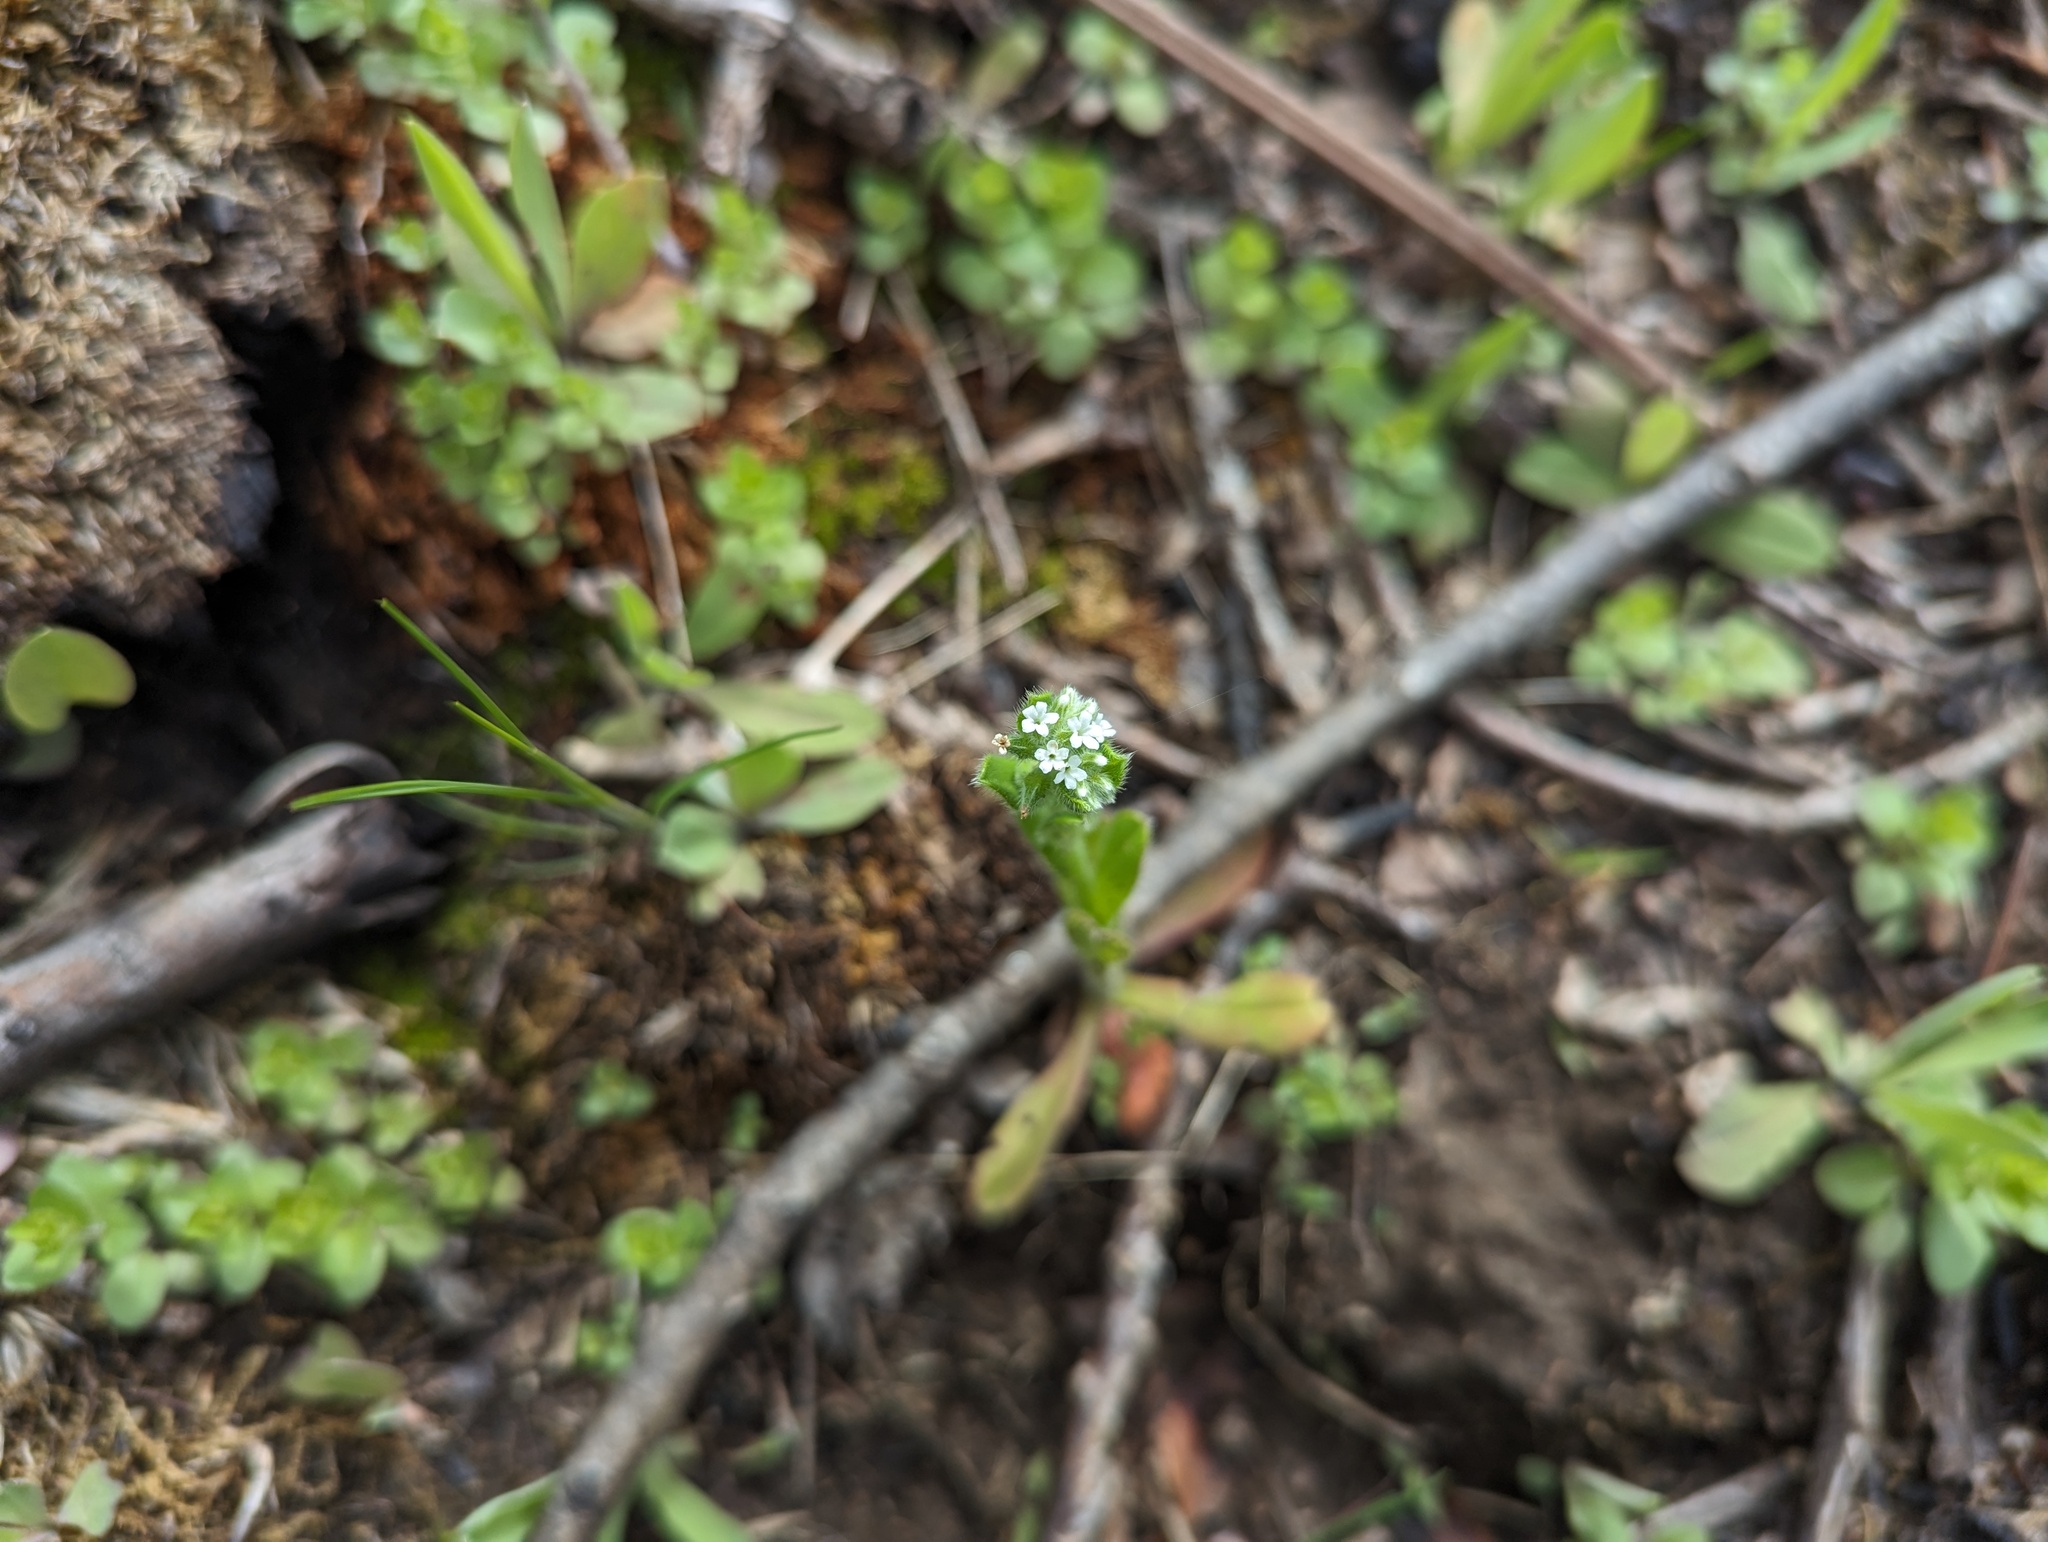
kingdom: Plantae
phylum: Tracheophyta
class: Magnoliopsida
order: Boraginales
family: Boraginaceae
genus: Myosotis
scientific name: Myosotis macrosperma
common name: Large-seed forget-me-not
